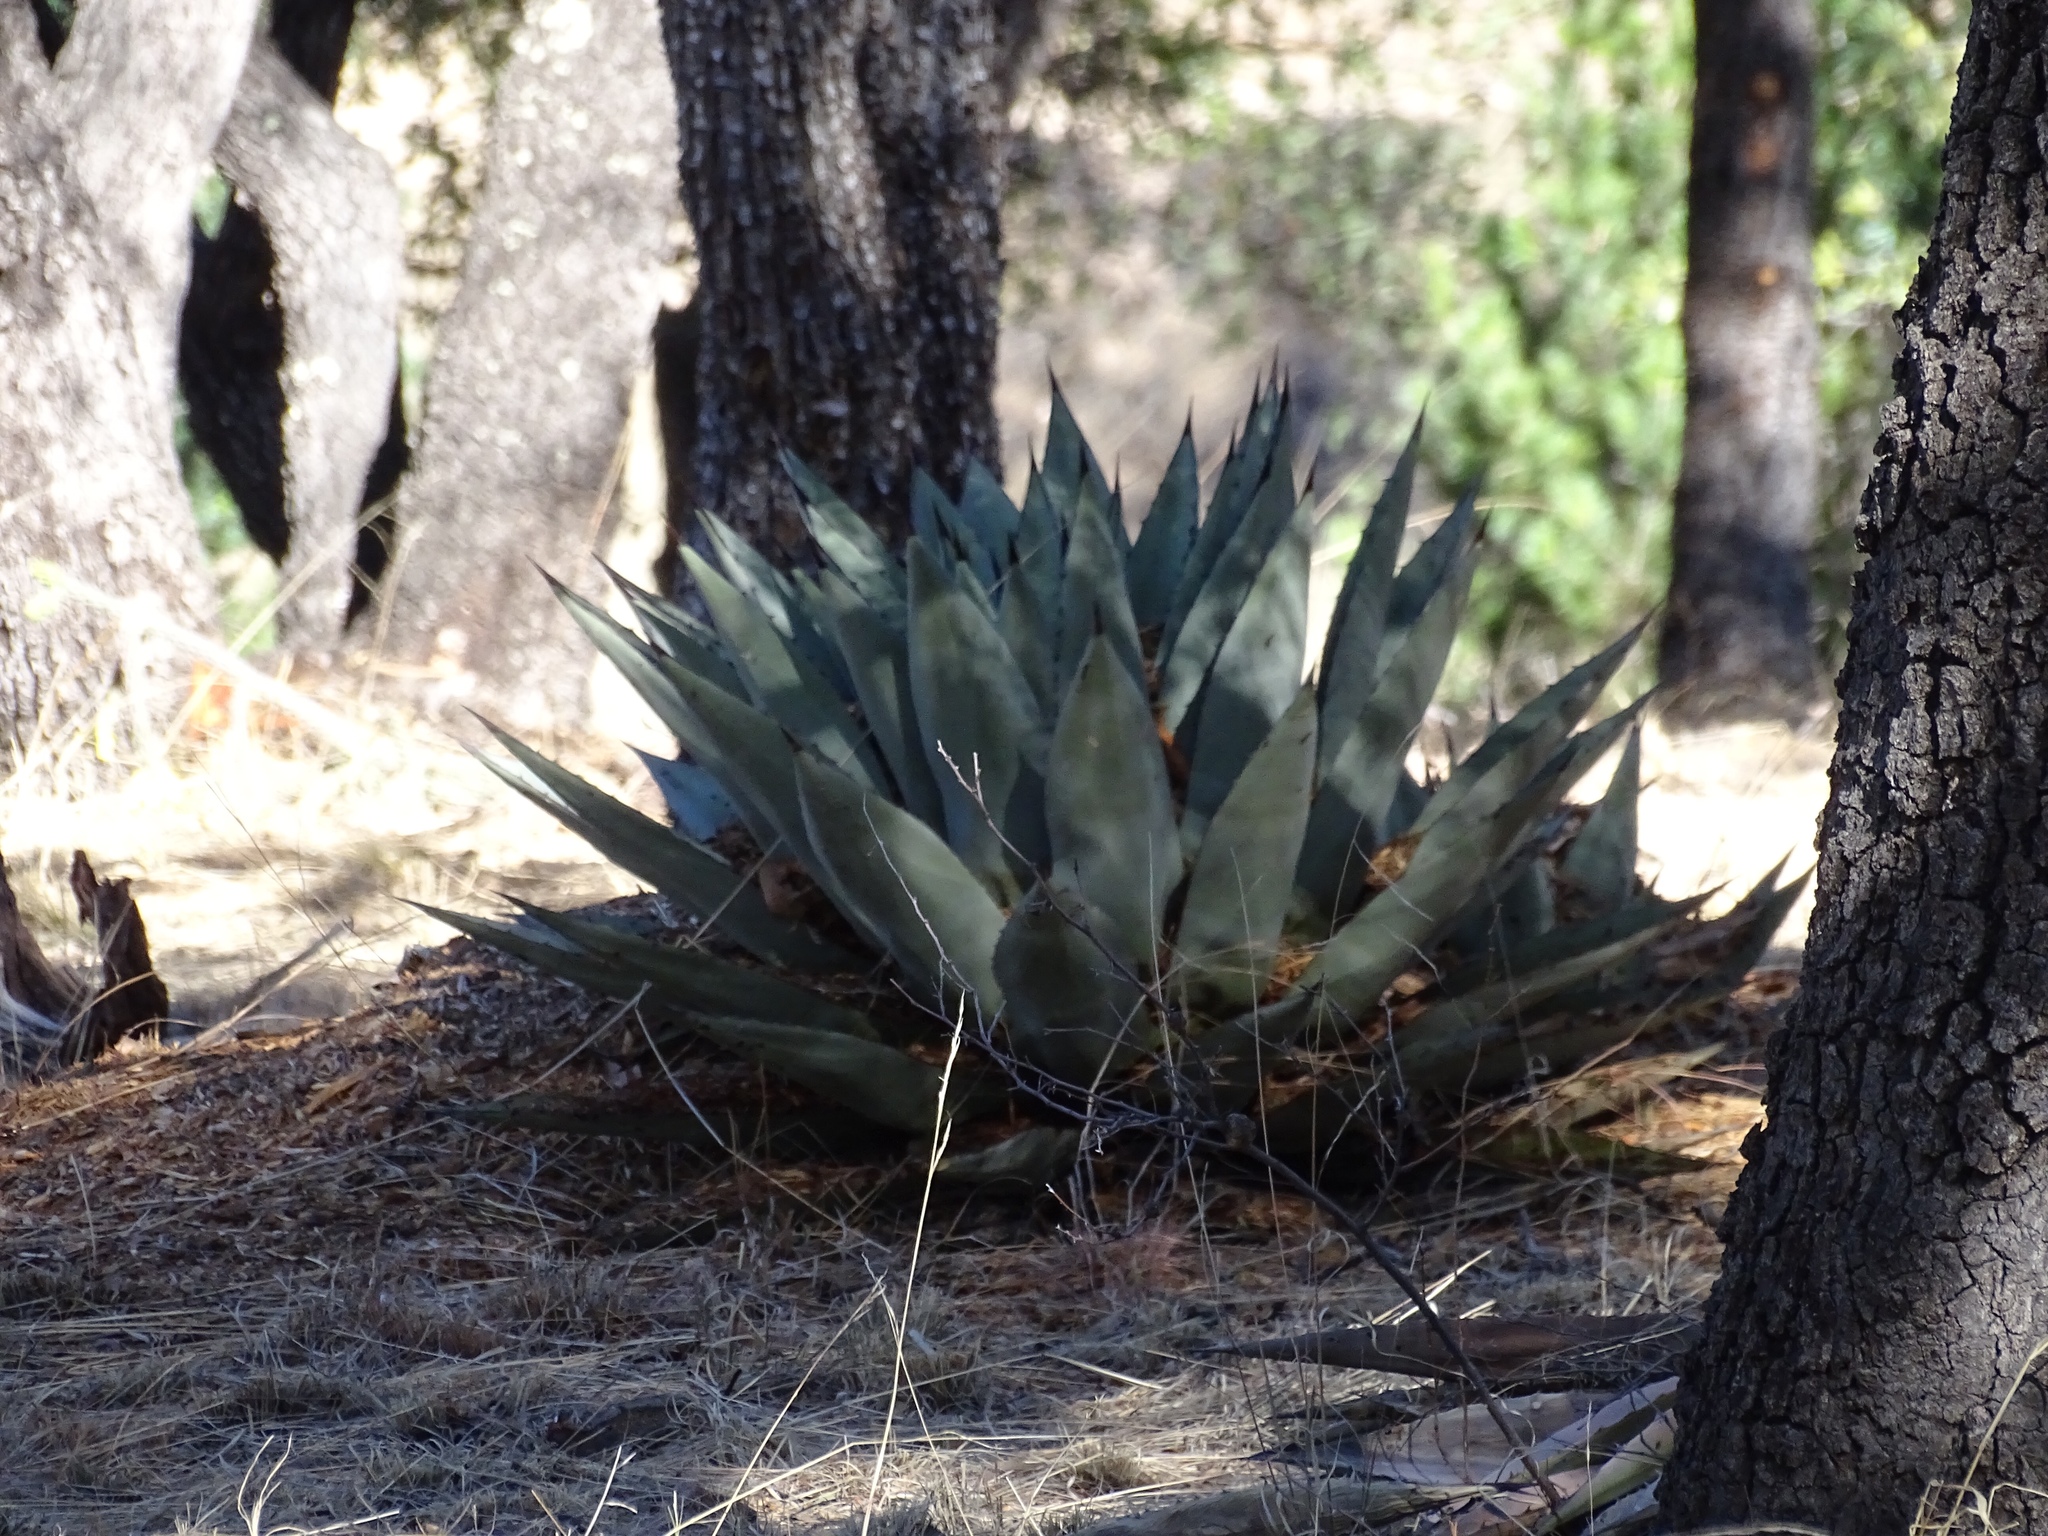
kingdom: Plantae
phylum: Tracheophyta
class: Liliopsida
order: Asparagales
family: Asparagaceae
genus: Agave
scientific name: Agave parryi
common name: Parry's agave
